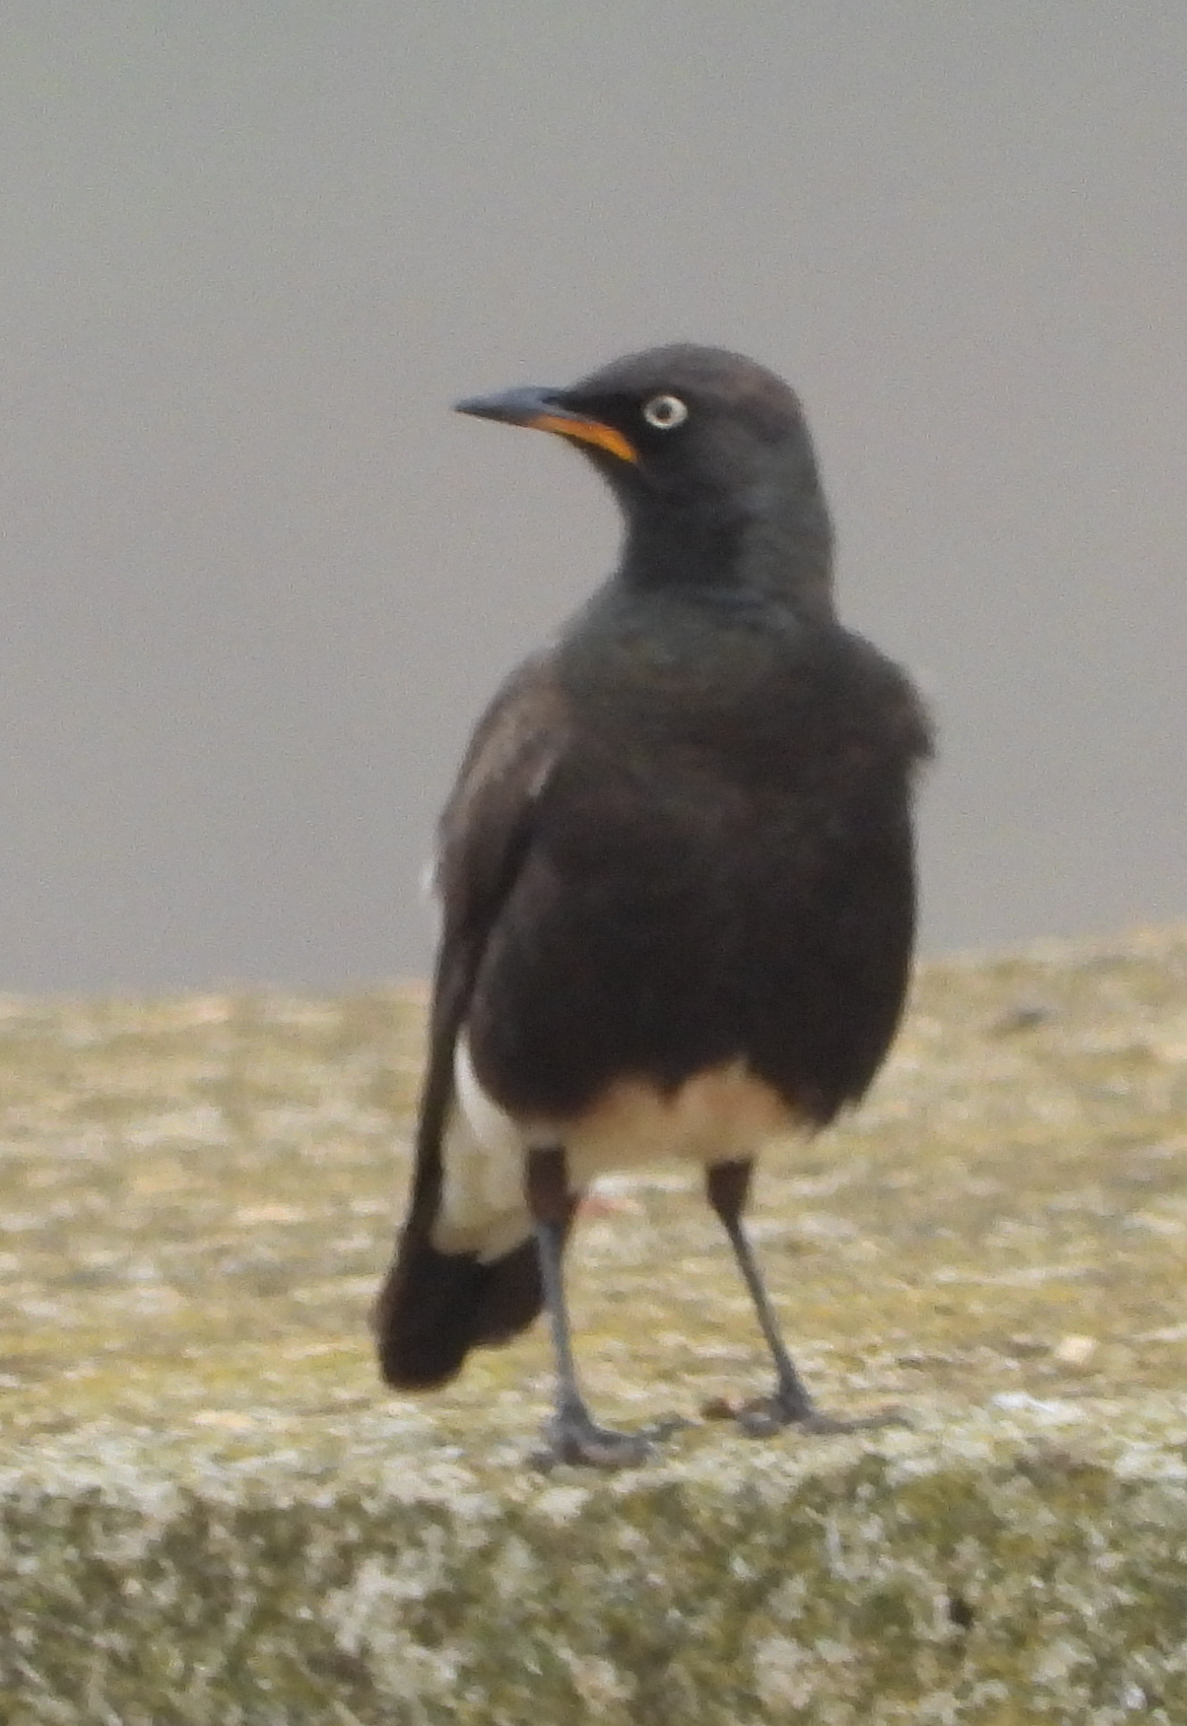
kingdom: Animalia
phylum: Chordata
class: Aves
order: Passeriformes
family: Sturnidae
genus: Lamprotornis
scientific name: Lamprotornis bicolor
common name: Pied starling
